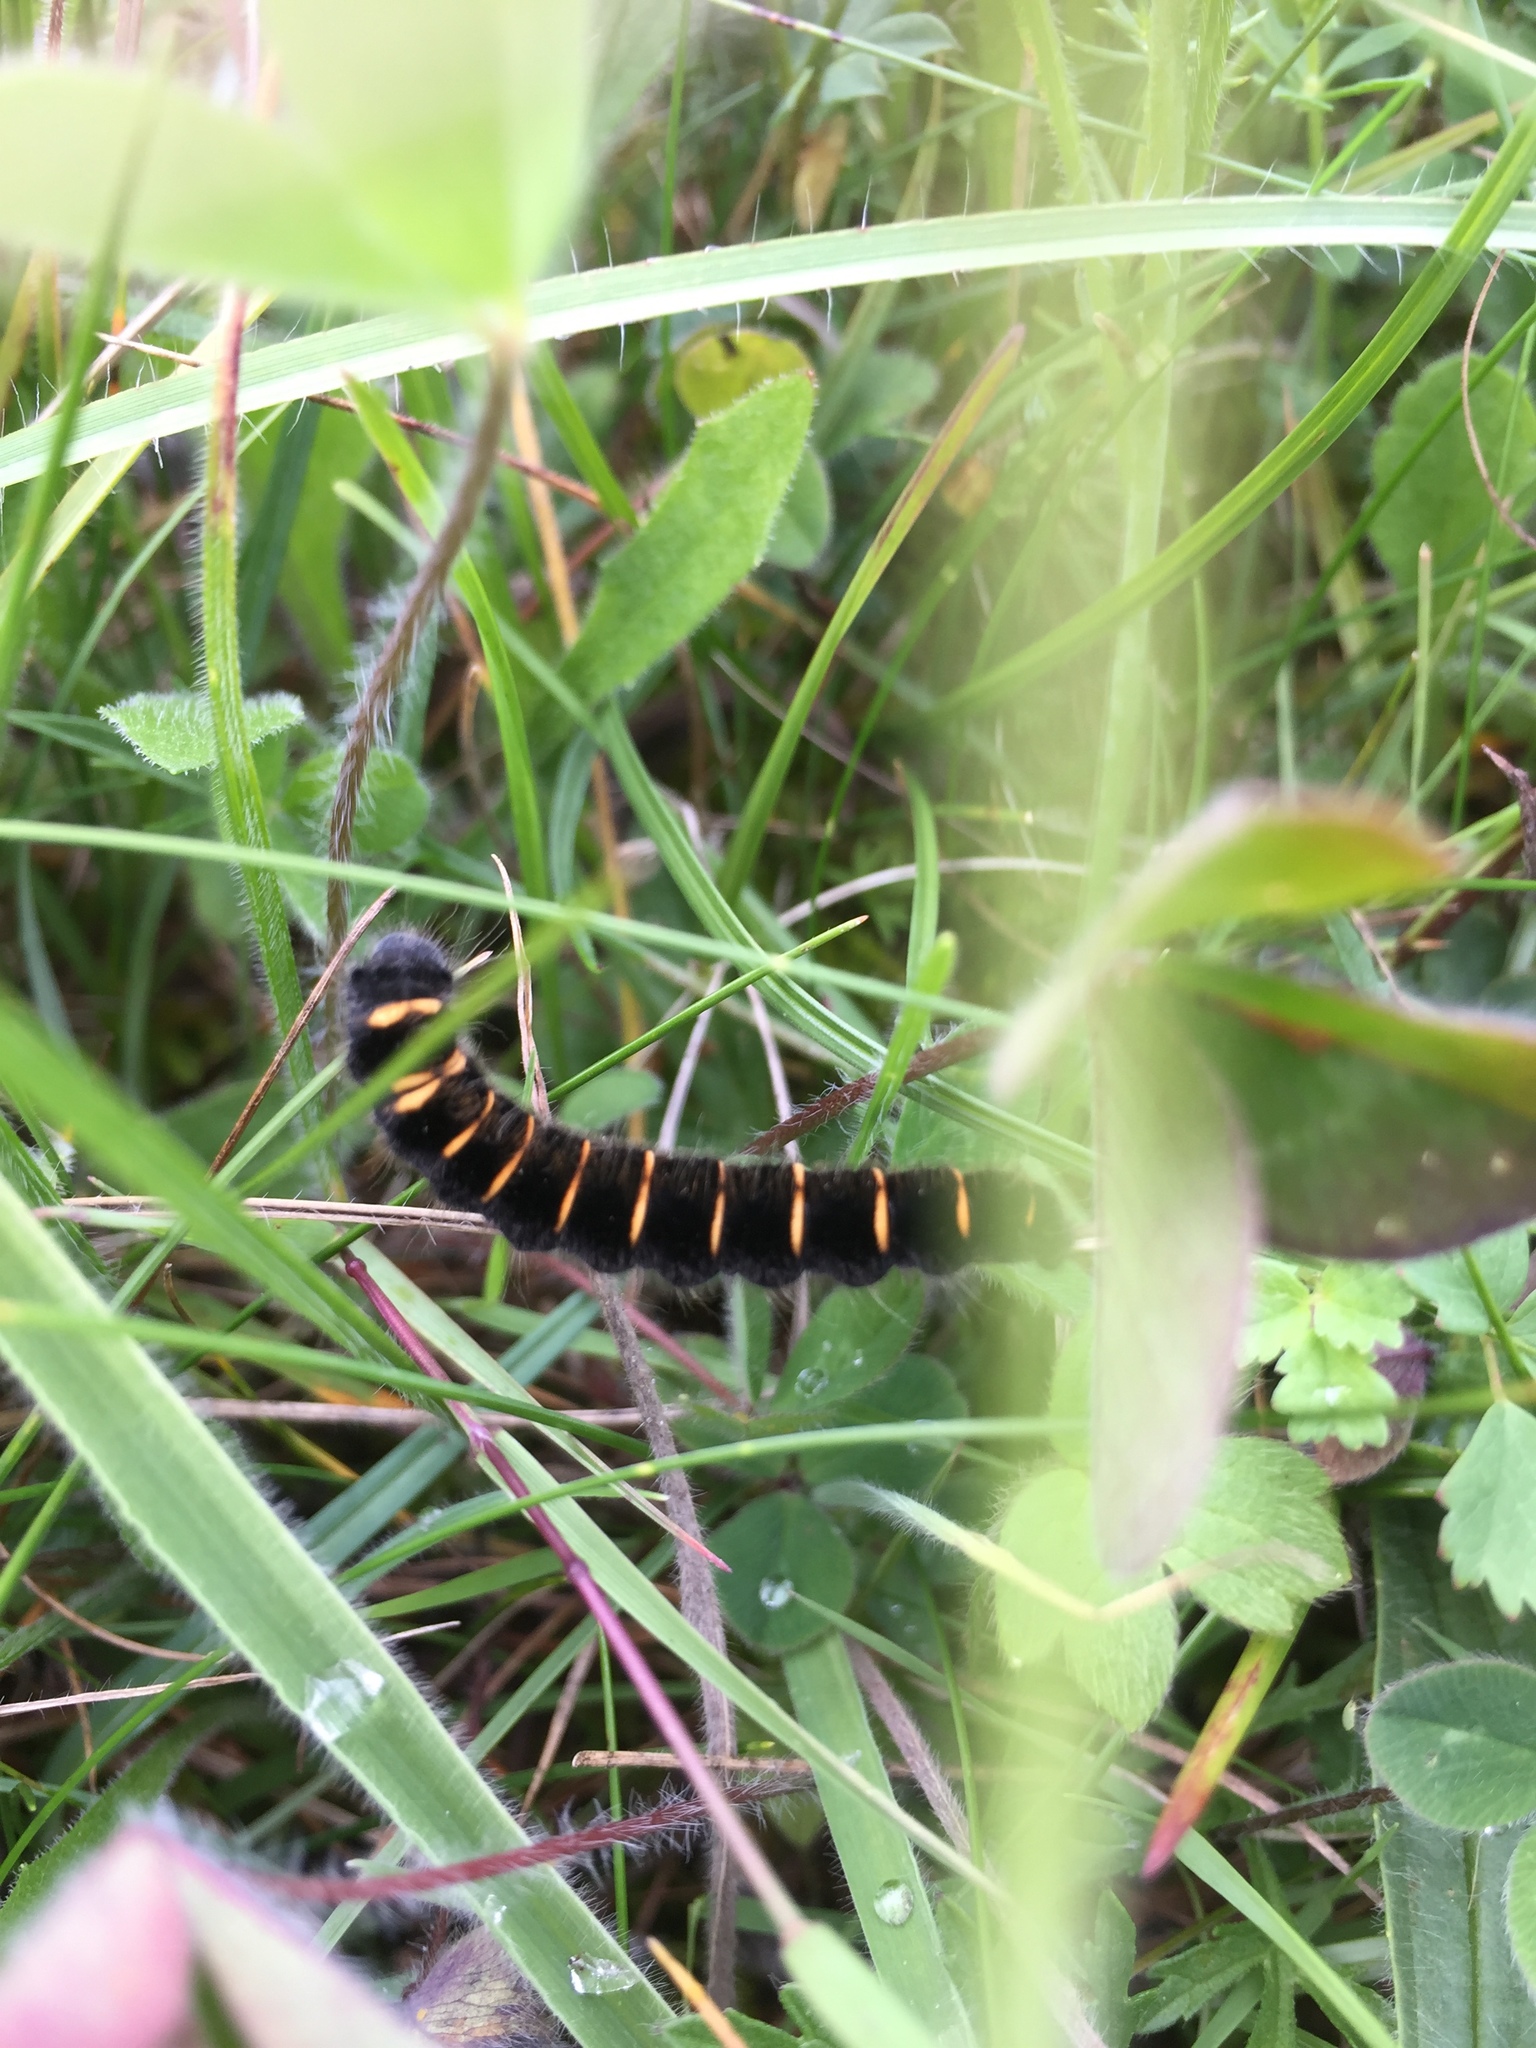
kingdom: Animalia
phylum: Arthropoda
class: Insecta
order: Lepidoptera
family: Lasiocampidae
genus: Macrothylacia
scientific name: Macrothylacia rubi
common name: Fox moth
